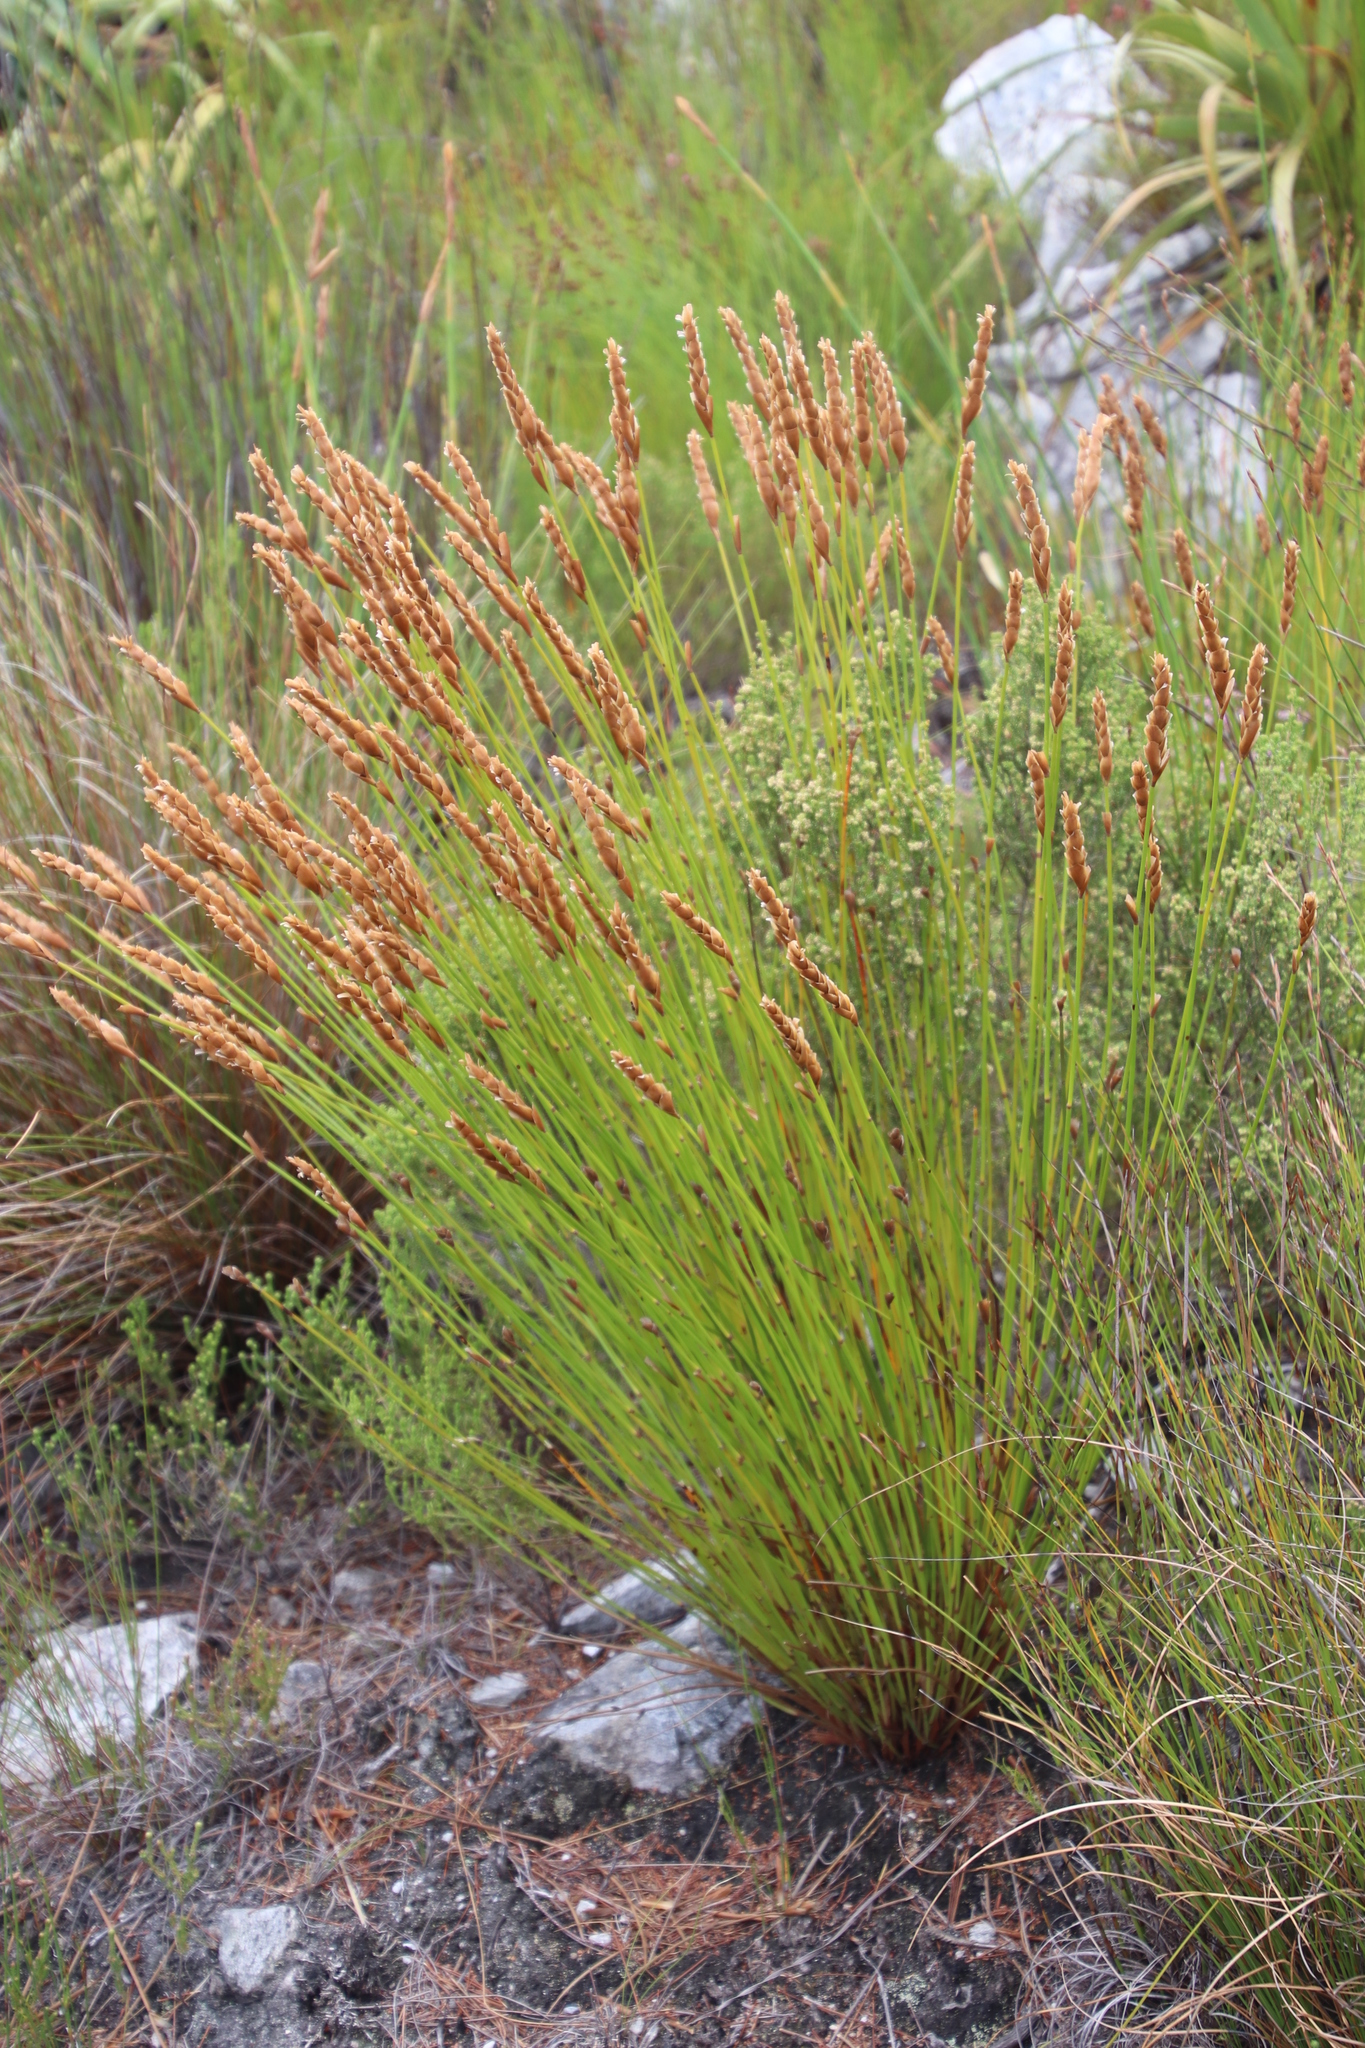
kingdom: Plantae
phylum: Tracheophyta
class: Liliopsida
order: Poales
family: Restionaceae
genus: Elegia
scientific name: Elegia spathacea
